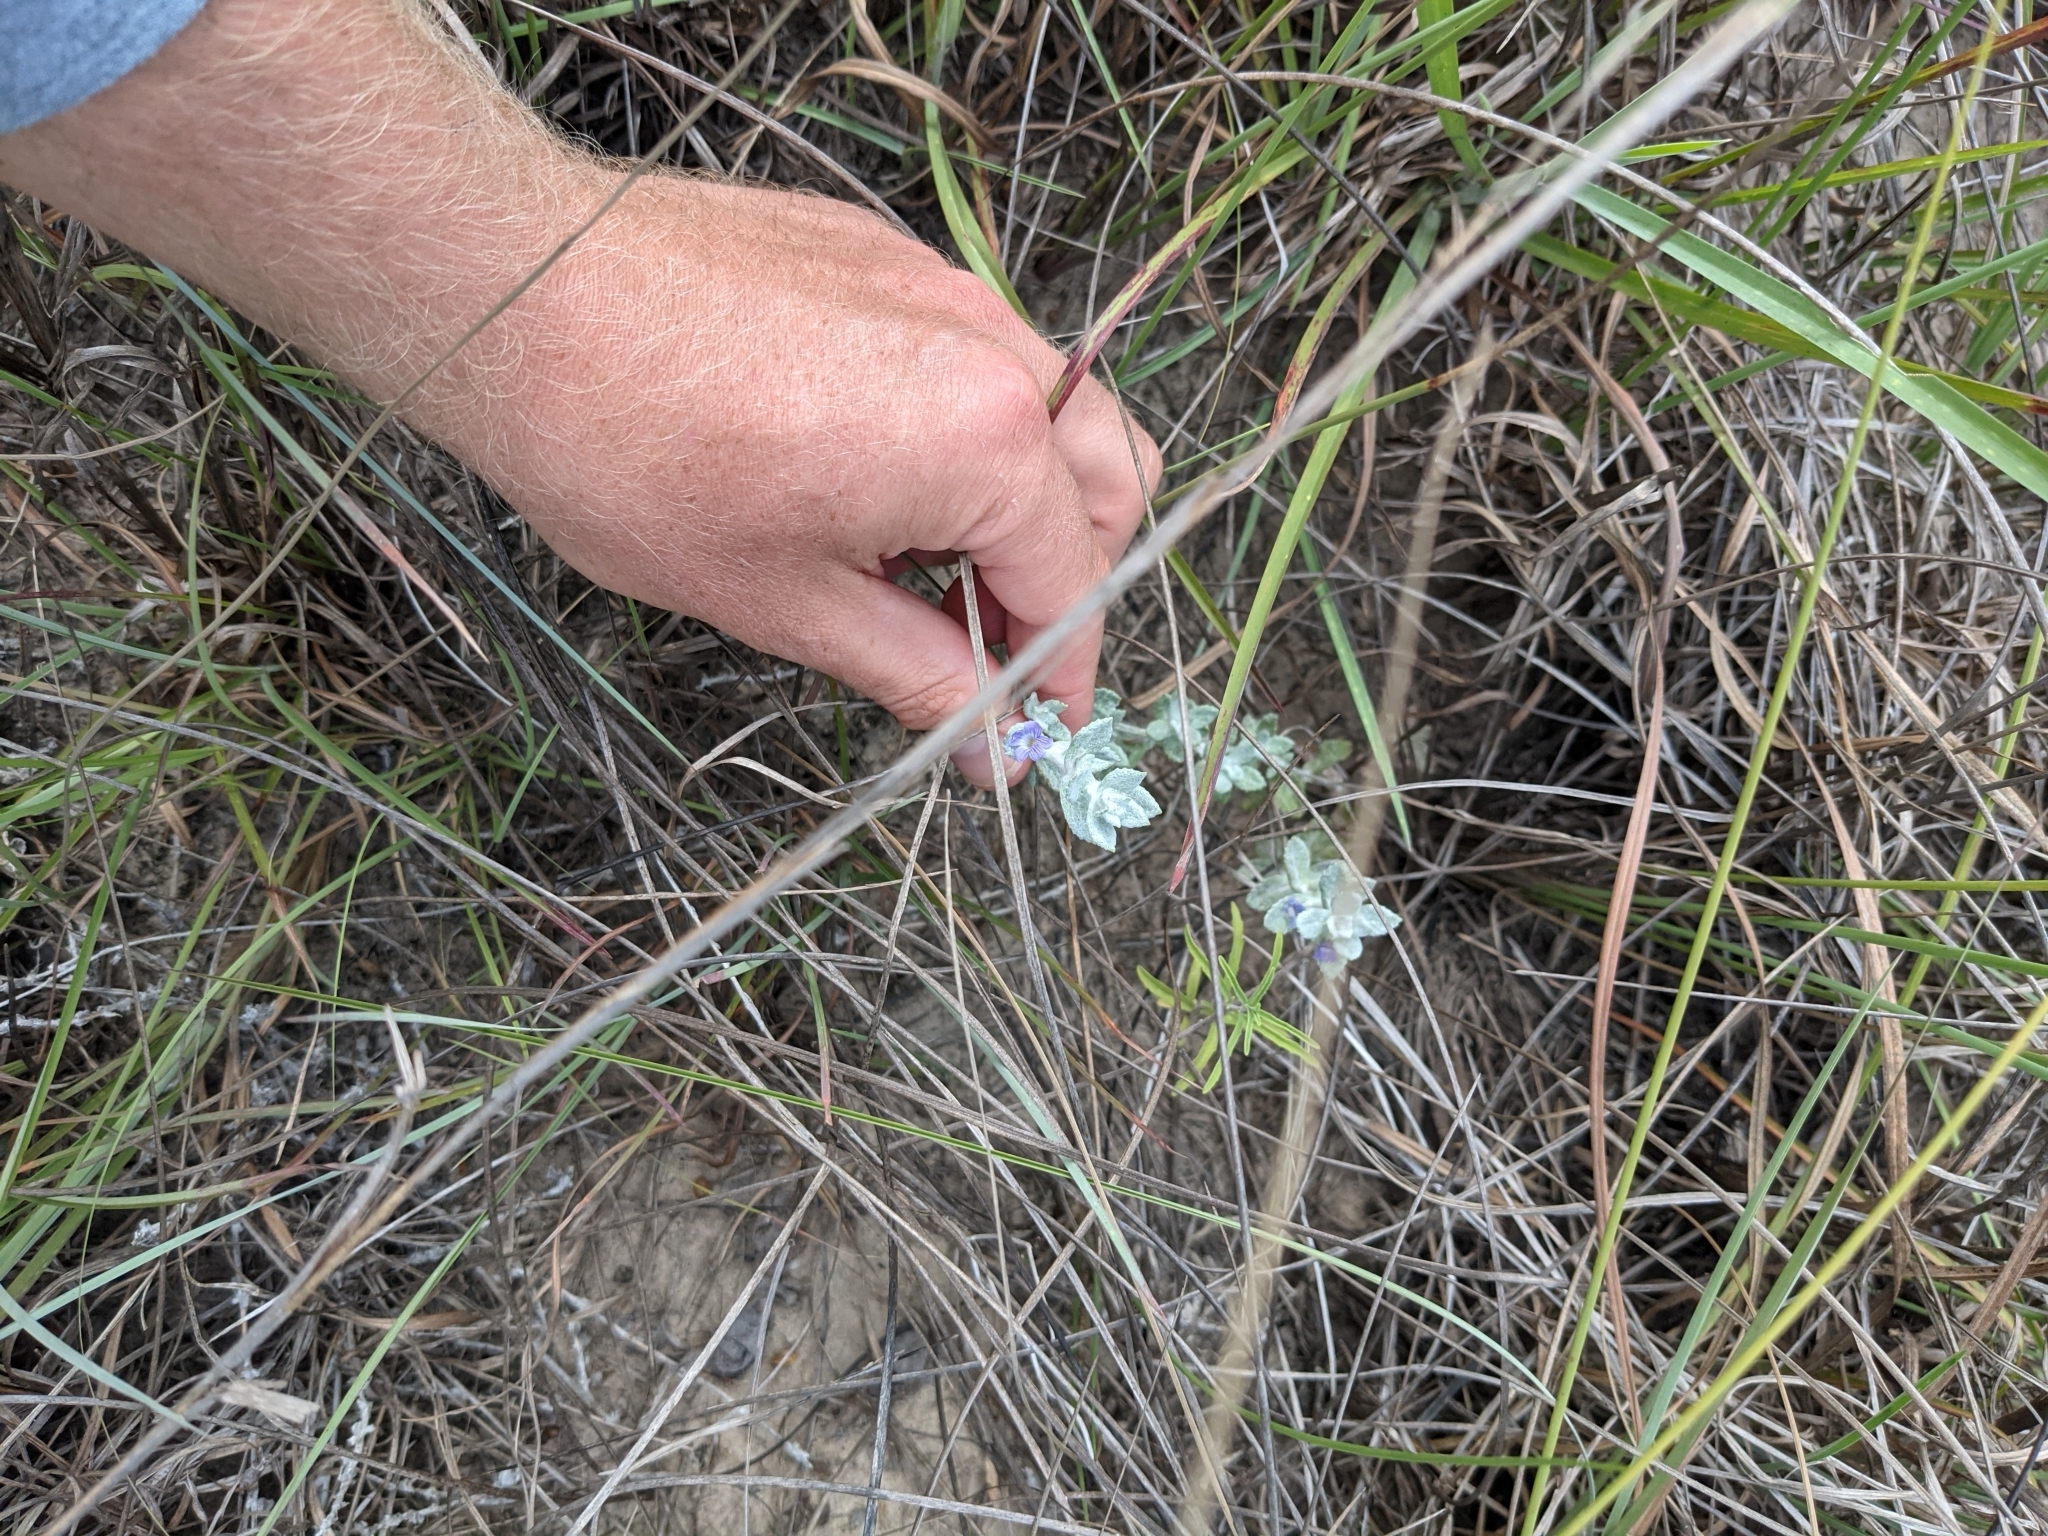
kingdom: Plantae
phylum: Tracheophyta
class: Magnoliopsida
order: Lamiales
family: Plantaginaceae
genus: Stemodia
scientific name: Stemodia lanata
